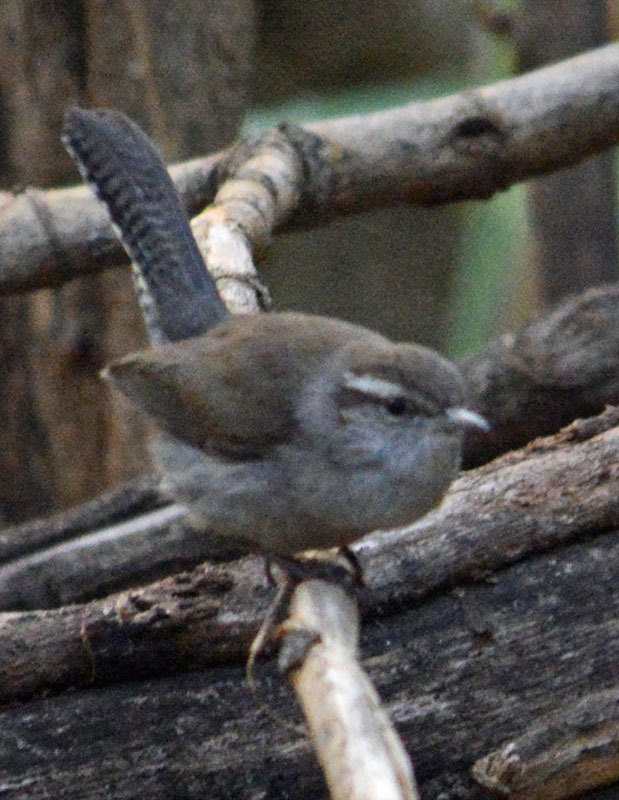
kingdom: Animalia
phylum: Chordata
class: Aves
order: Passeriformes
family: Troglodytidae
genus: Thryomanes
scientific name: Thryomanes bewickii
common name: Bewick's wren
